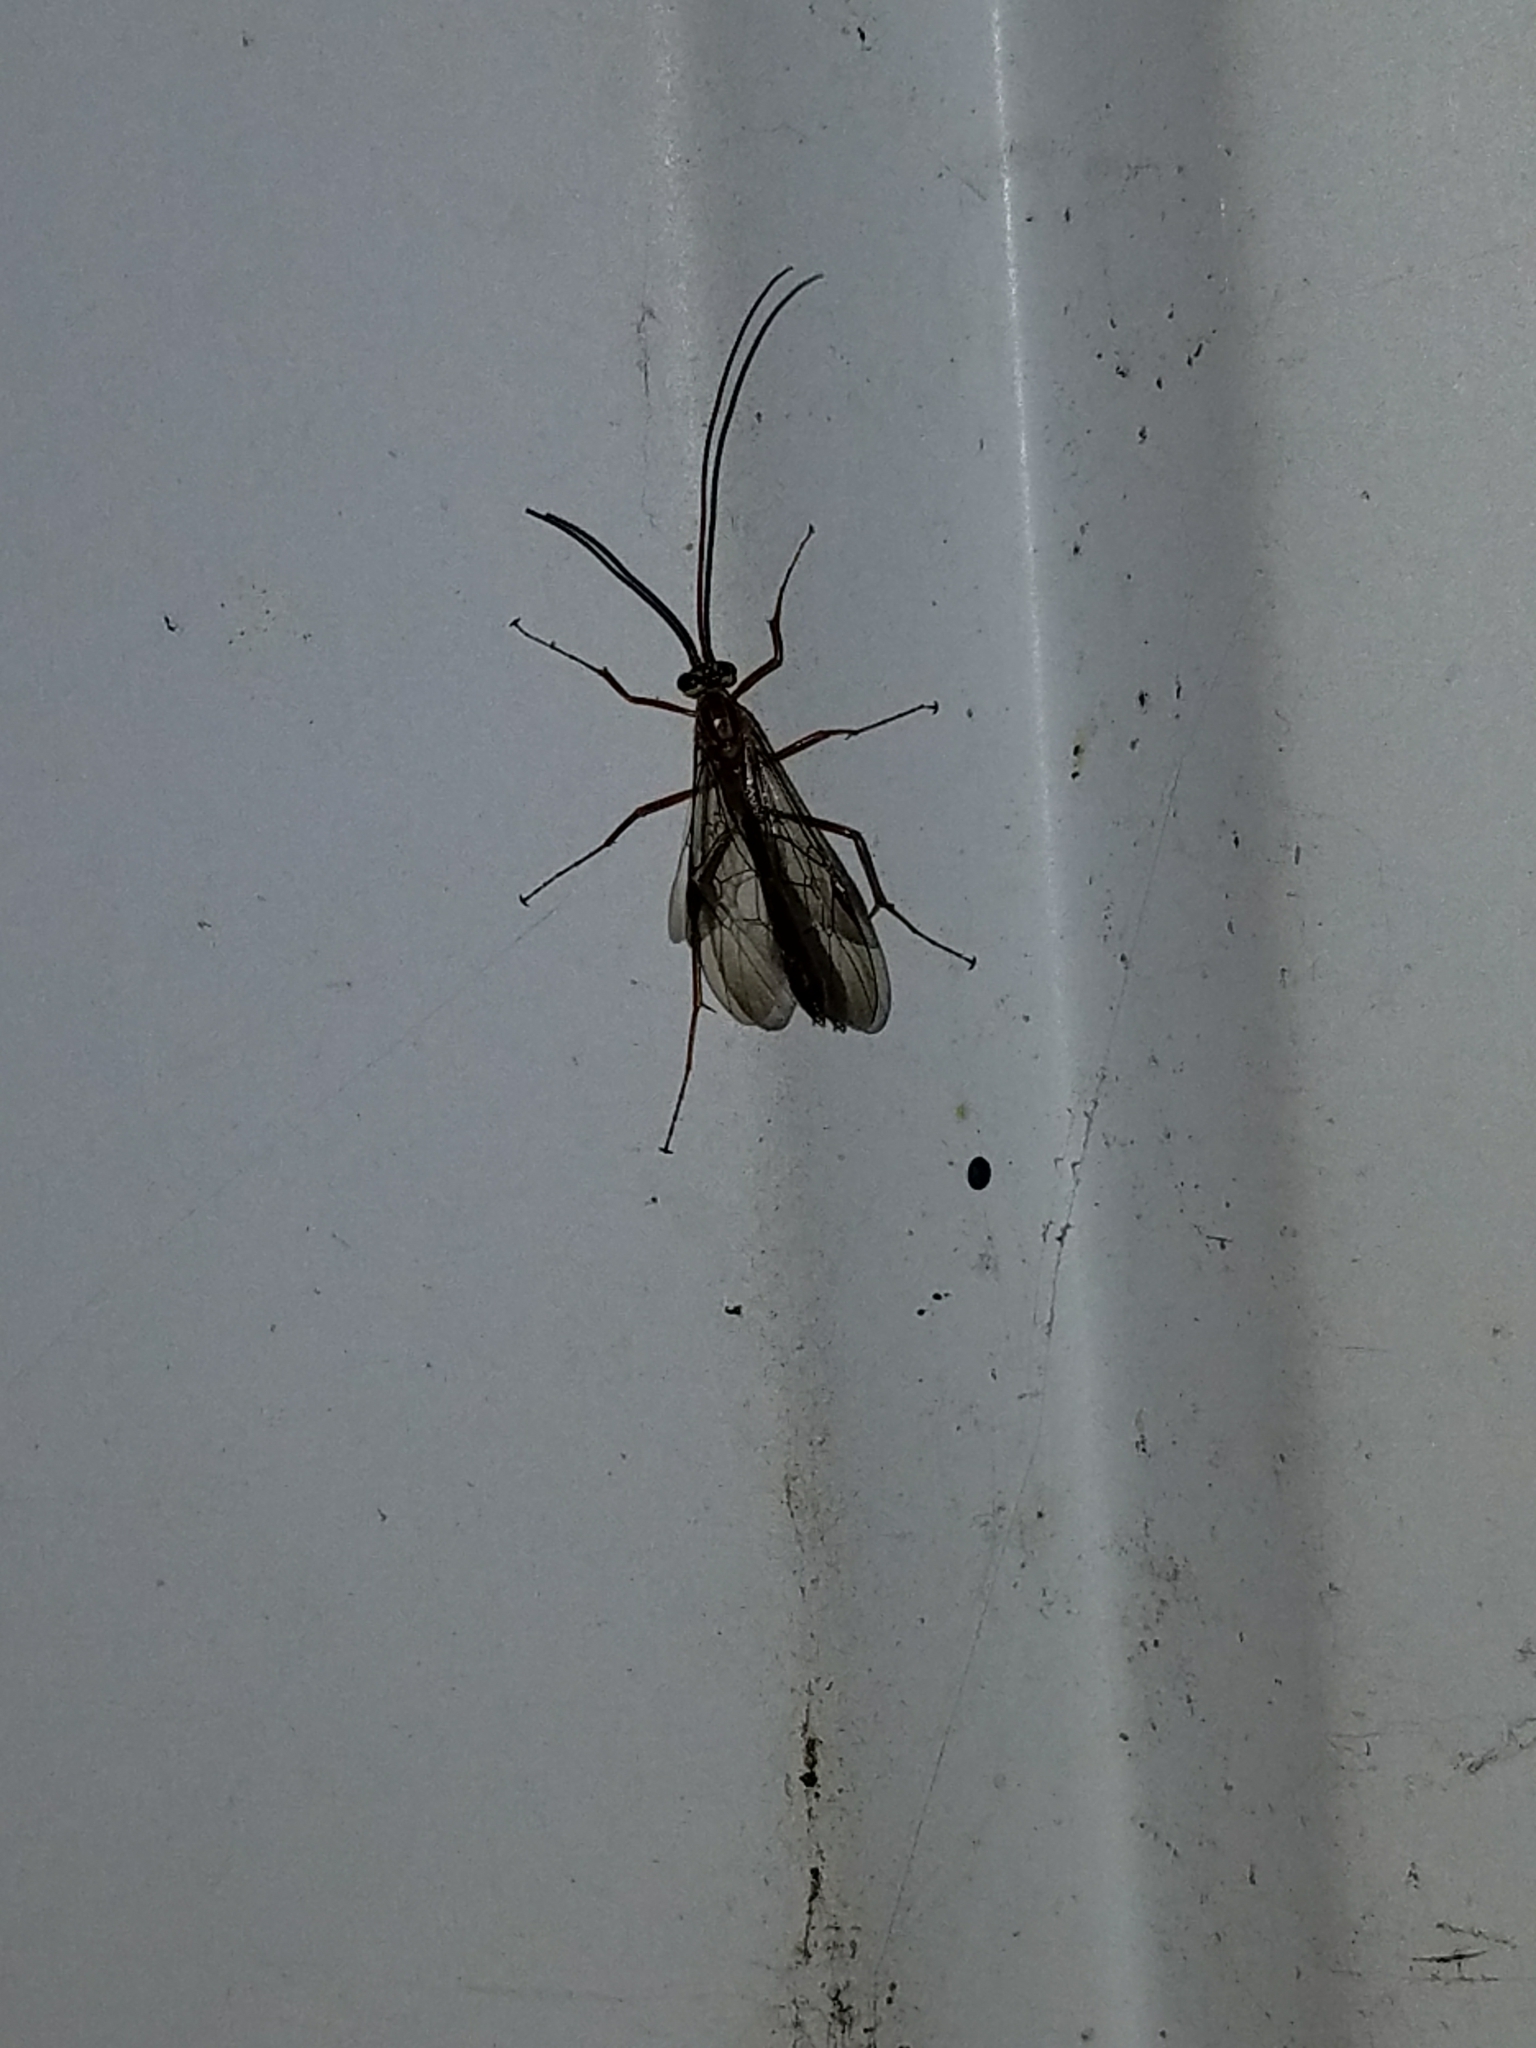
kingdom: Animalia
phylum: Arthropoda
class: Insecta
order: Hymenoptera
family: Ichneumonidae
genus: Ophion
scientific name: Ophion
